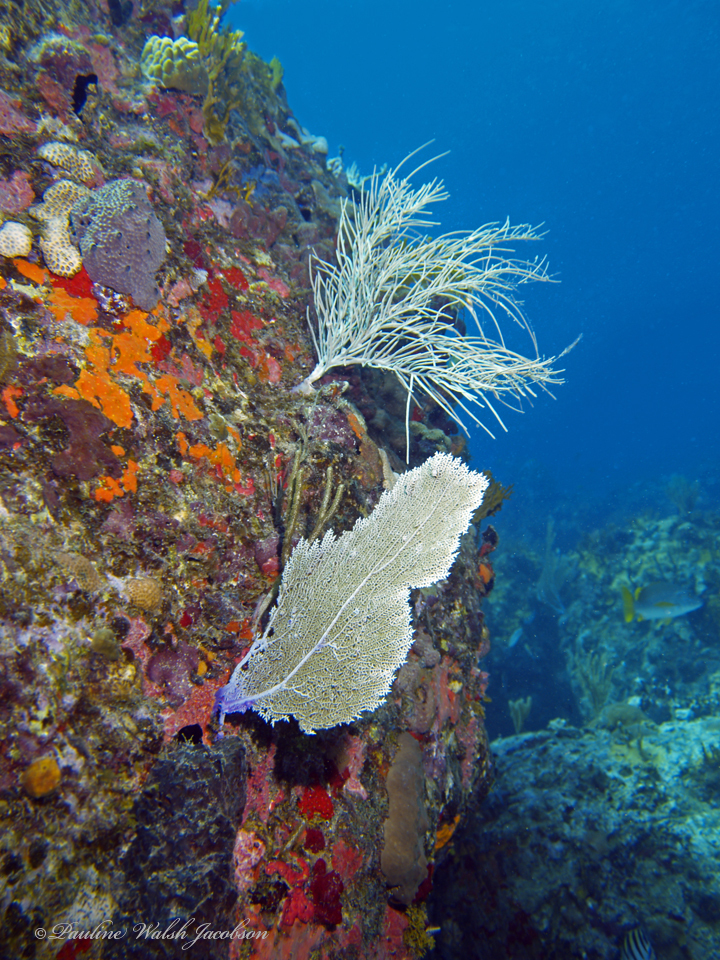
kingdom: Animalia
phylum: Cnidaria
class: Anthozoa
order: Malacalcyonacea
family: Gorgoniidae
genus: Gorgonia
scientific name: Gorgonia ventalina
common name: Common sea fan
